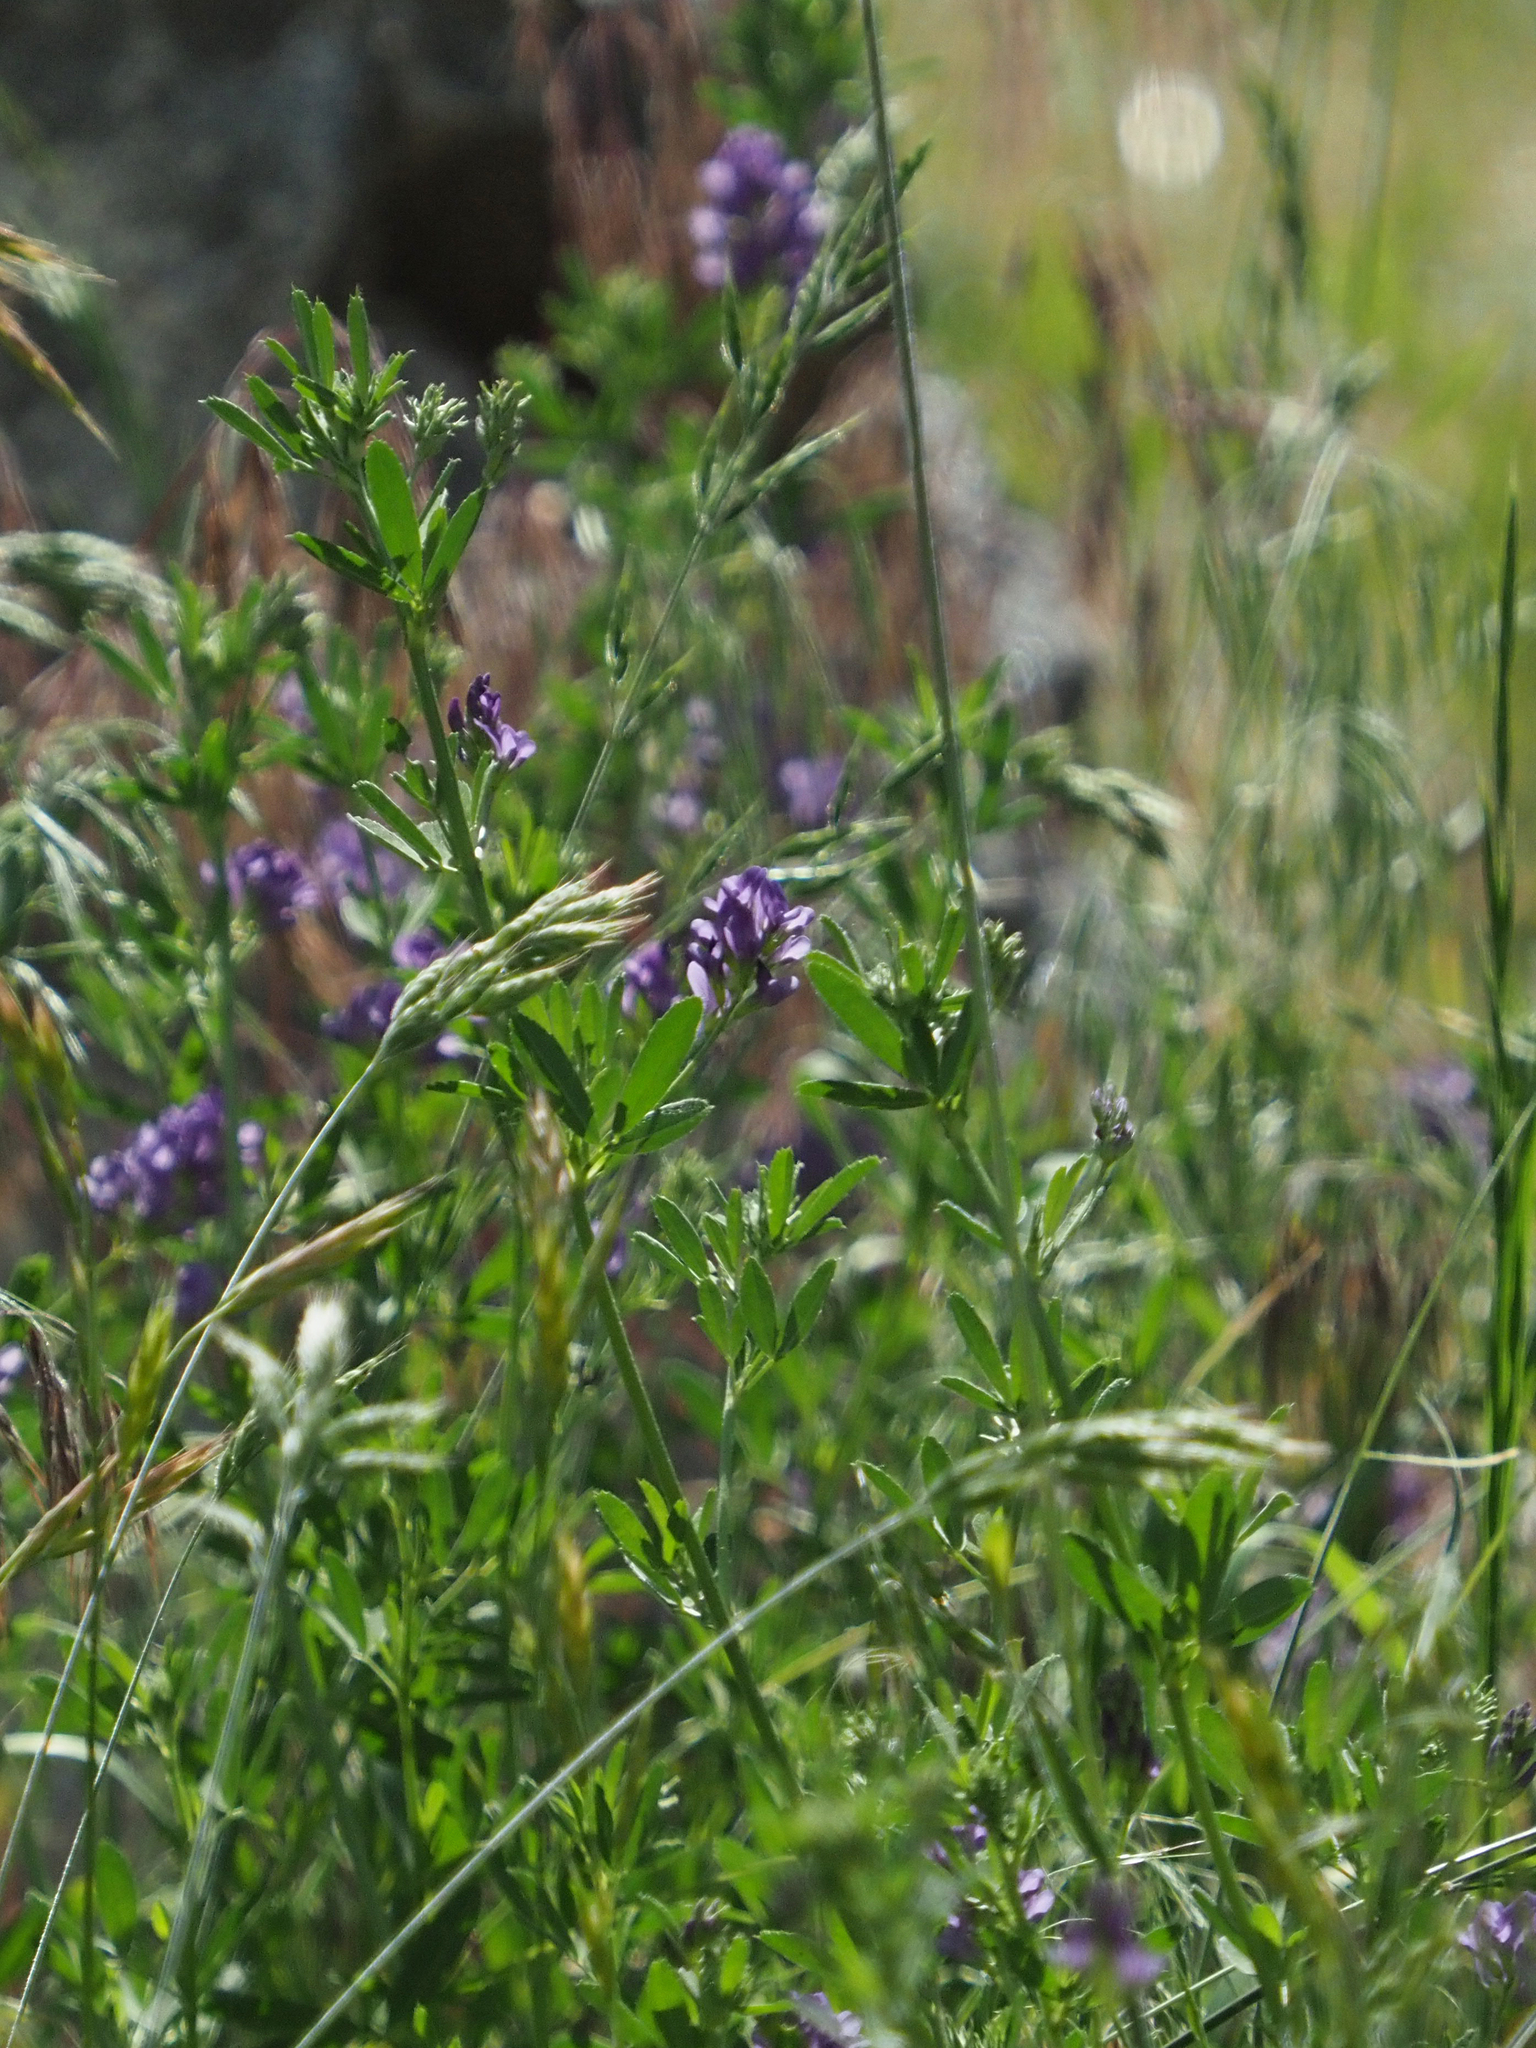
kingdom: Plantae
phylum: Tracheophyta
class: Magnoliopsida
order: Fabales
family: Fabaceae
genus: Medicago
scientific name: Medicago sativa
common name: Alfalfa
